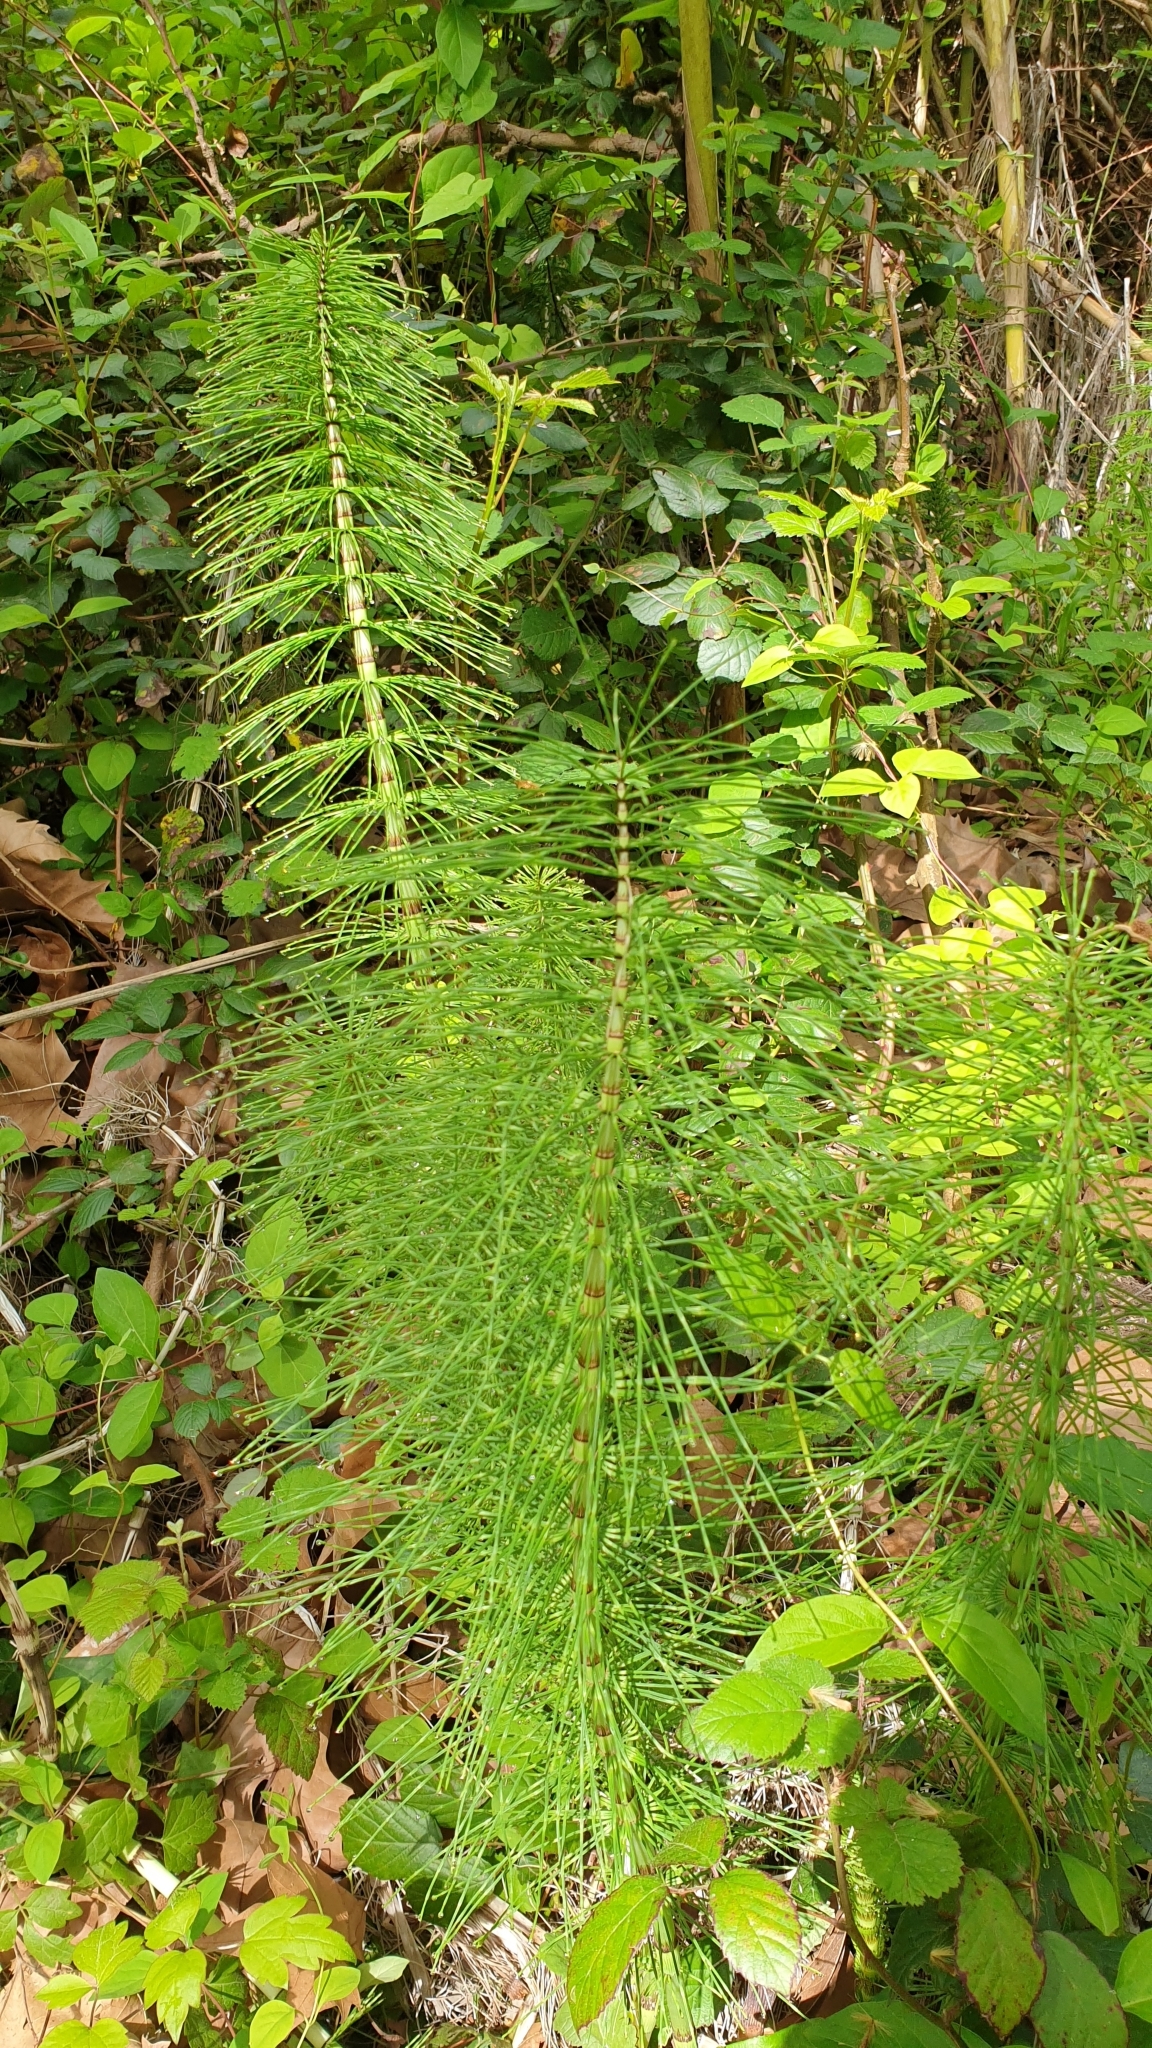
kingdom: Plantae
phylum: Tracheophyta
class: Polypodiopsida
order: Equisetales
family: Equisetaceae
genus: Equisetum
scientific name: Equisetum telmateia
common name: Great horsetail
